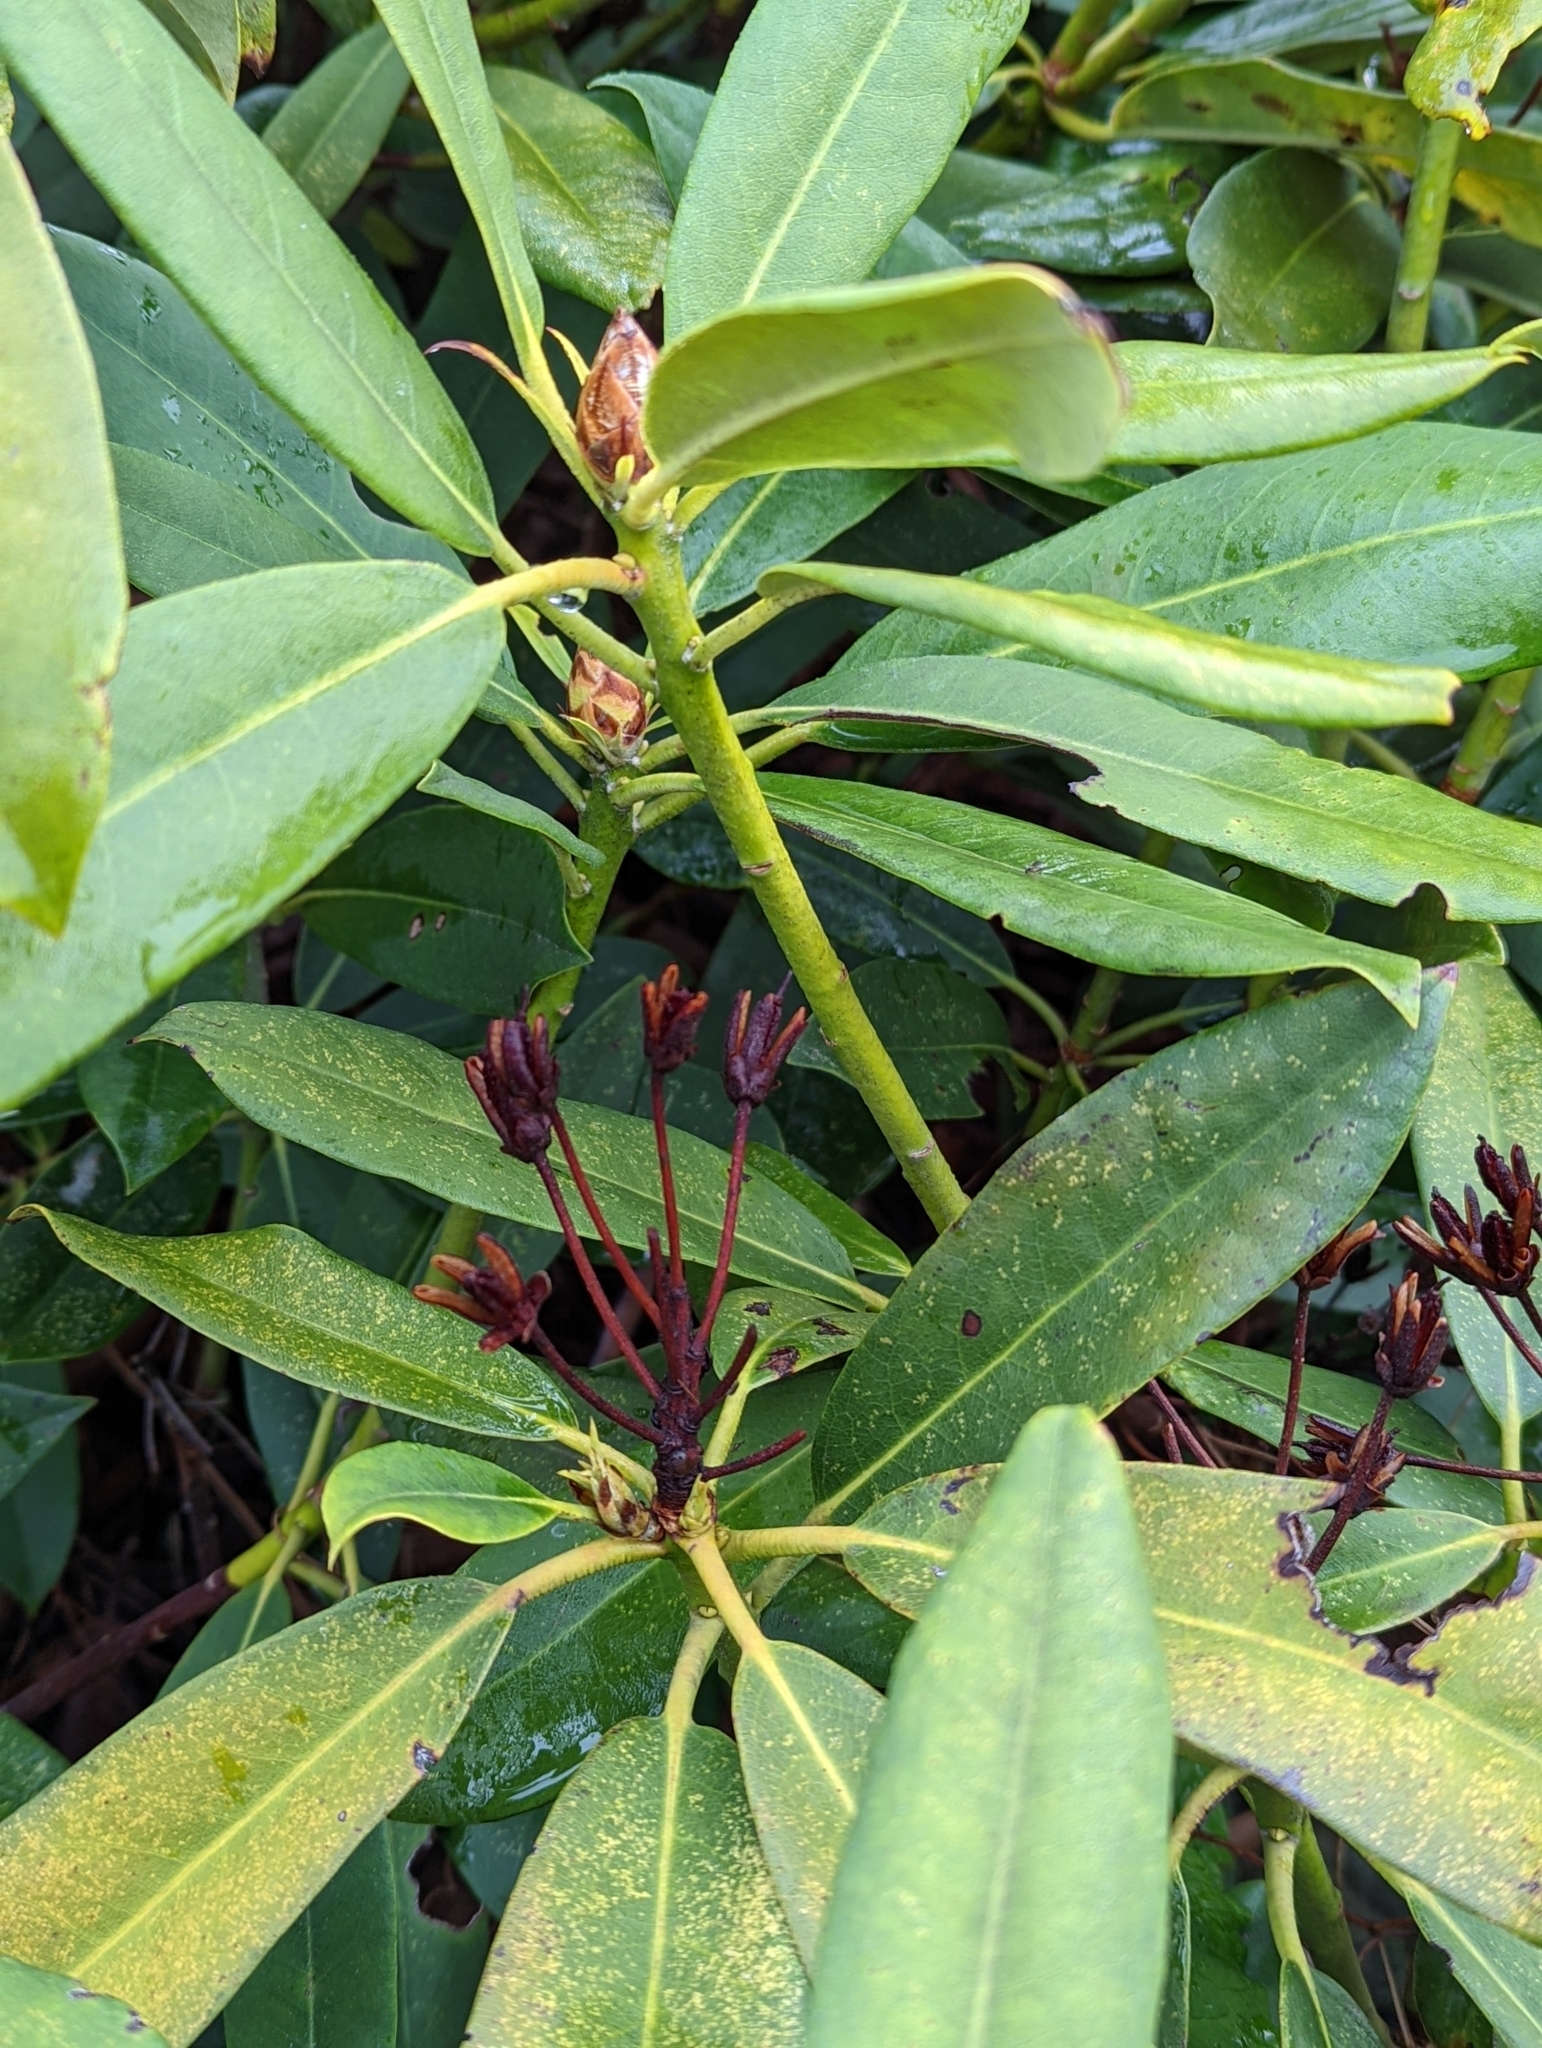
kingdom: Plantae
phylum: Tracheophyta
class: Magnoliopsida
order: Ericales
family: Ericaceae
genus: Rhododendron
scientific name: Rhododendron maximum
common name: Great rhododendron
